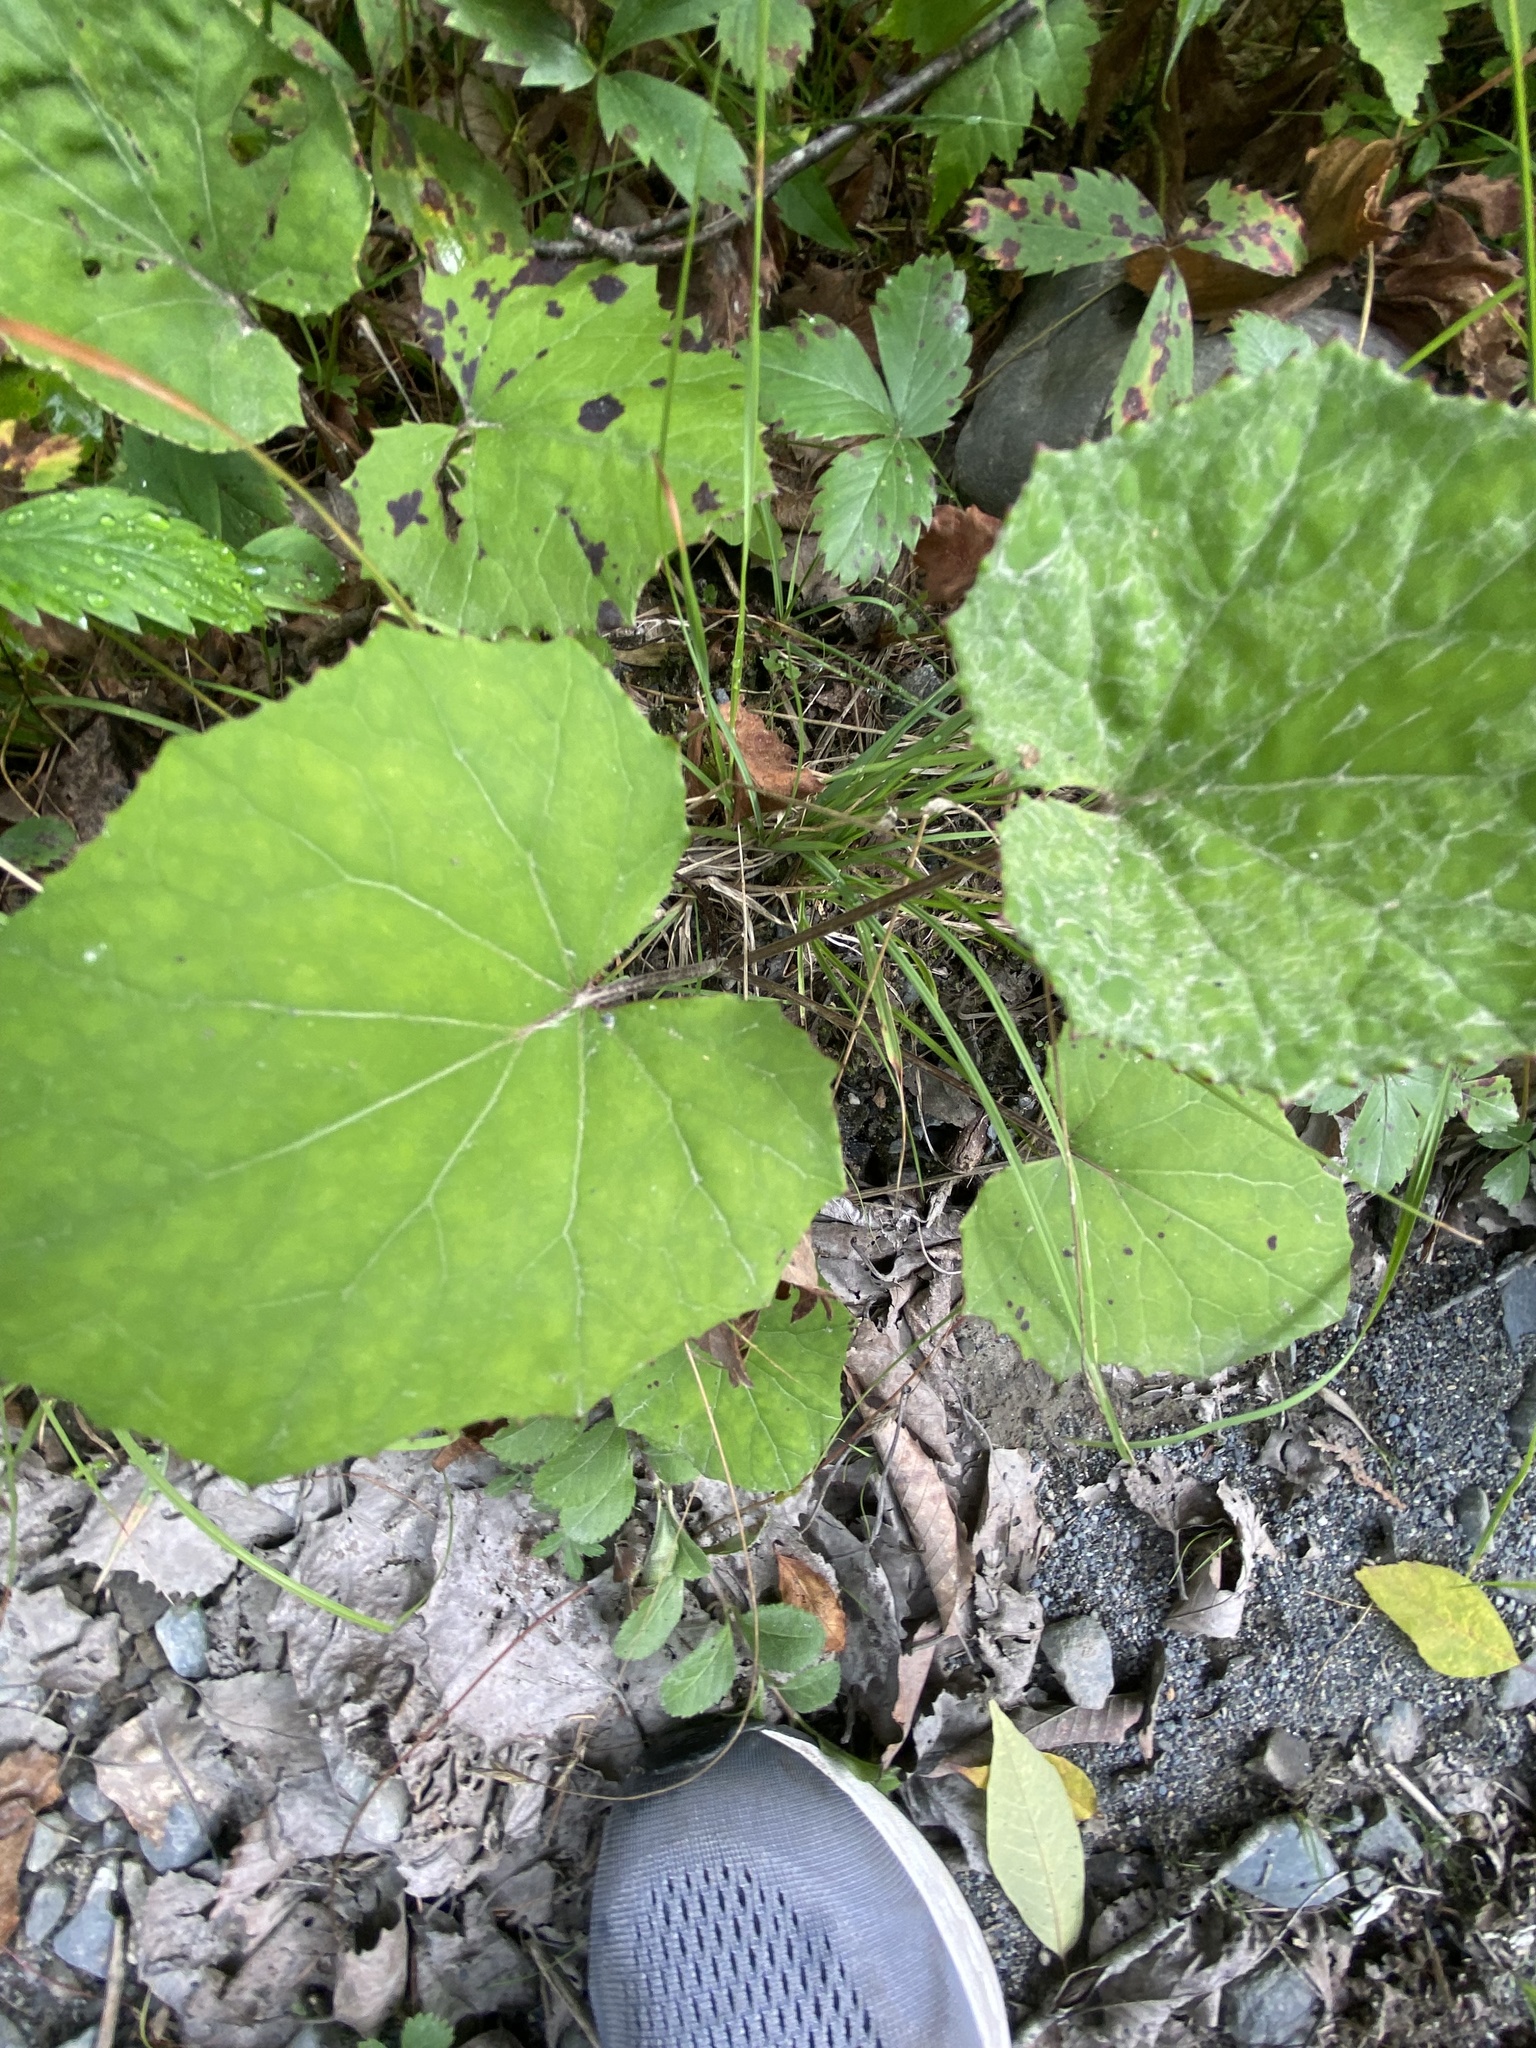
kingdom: Plantae
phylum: Tracheophyta
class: Magnoliopsida
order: Asterales
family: Asteraceae
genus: Tussilago
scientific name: Tussilago farfara
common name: Coltsfoot
